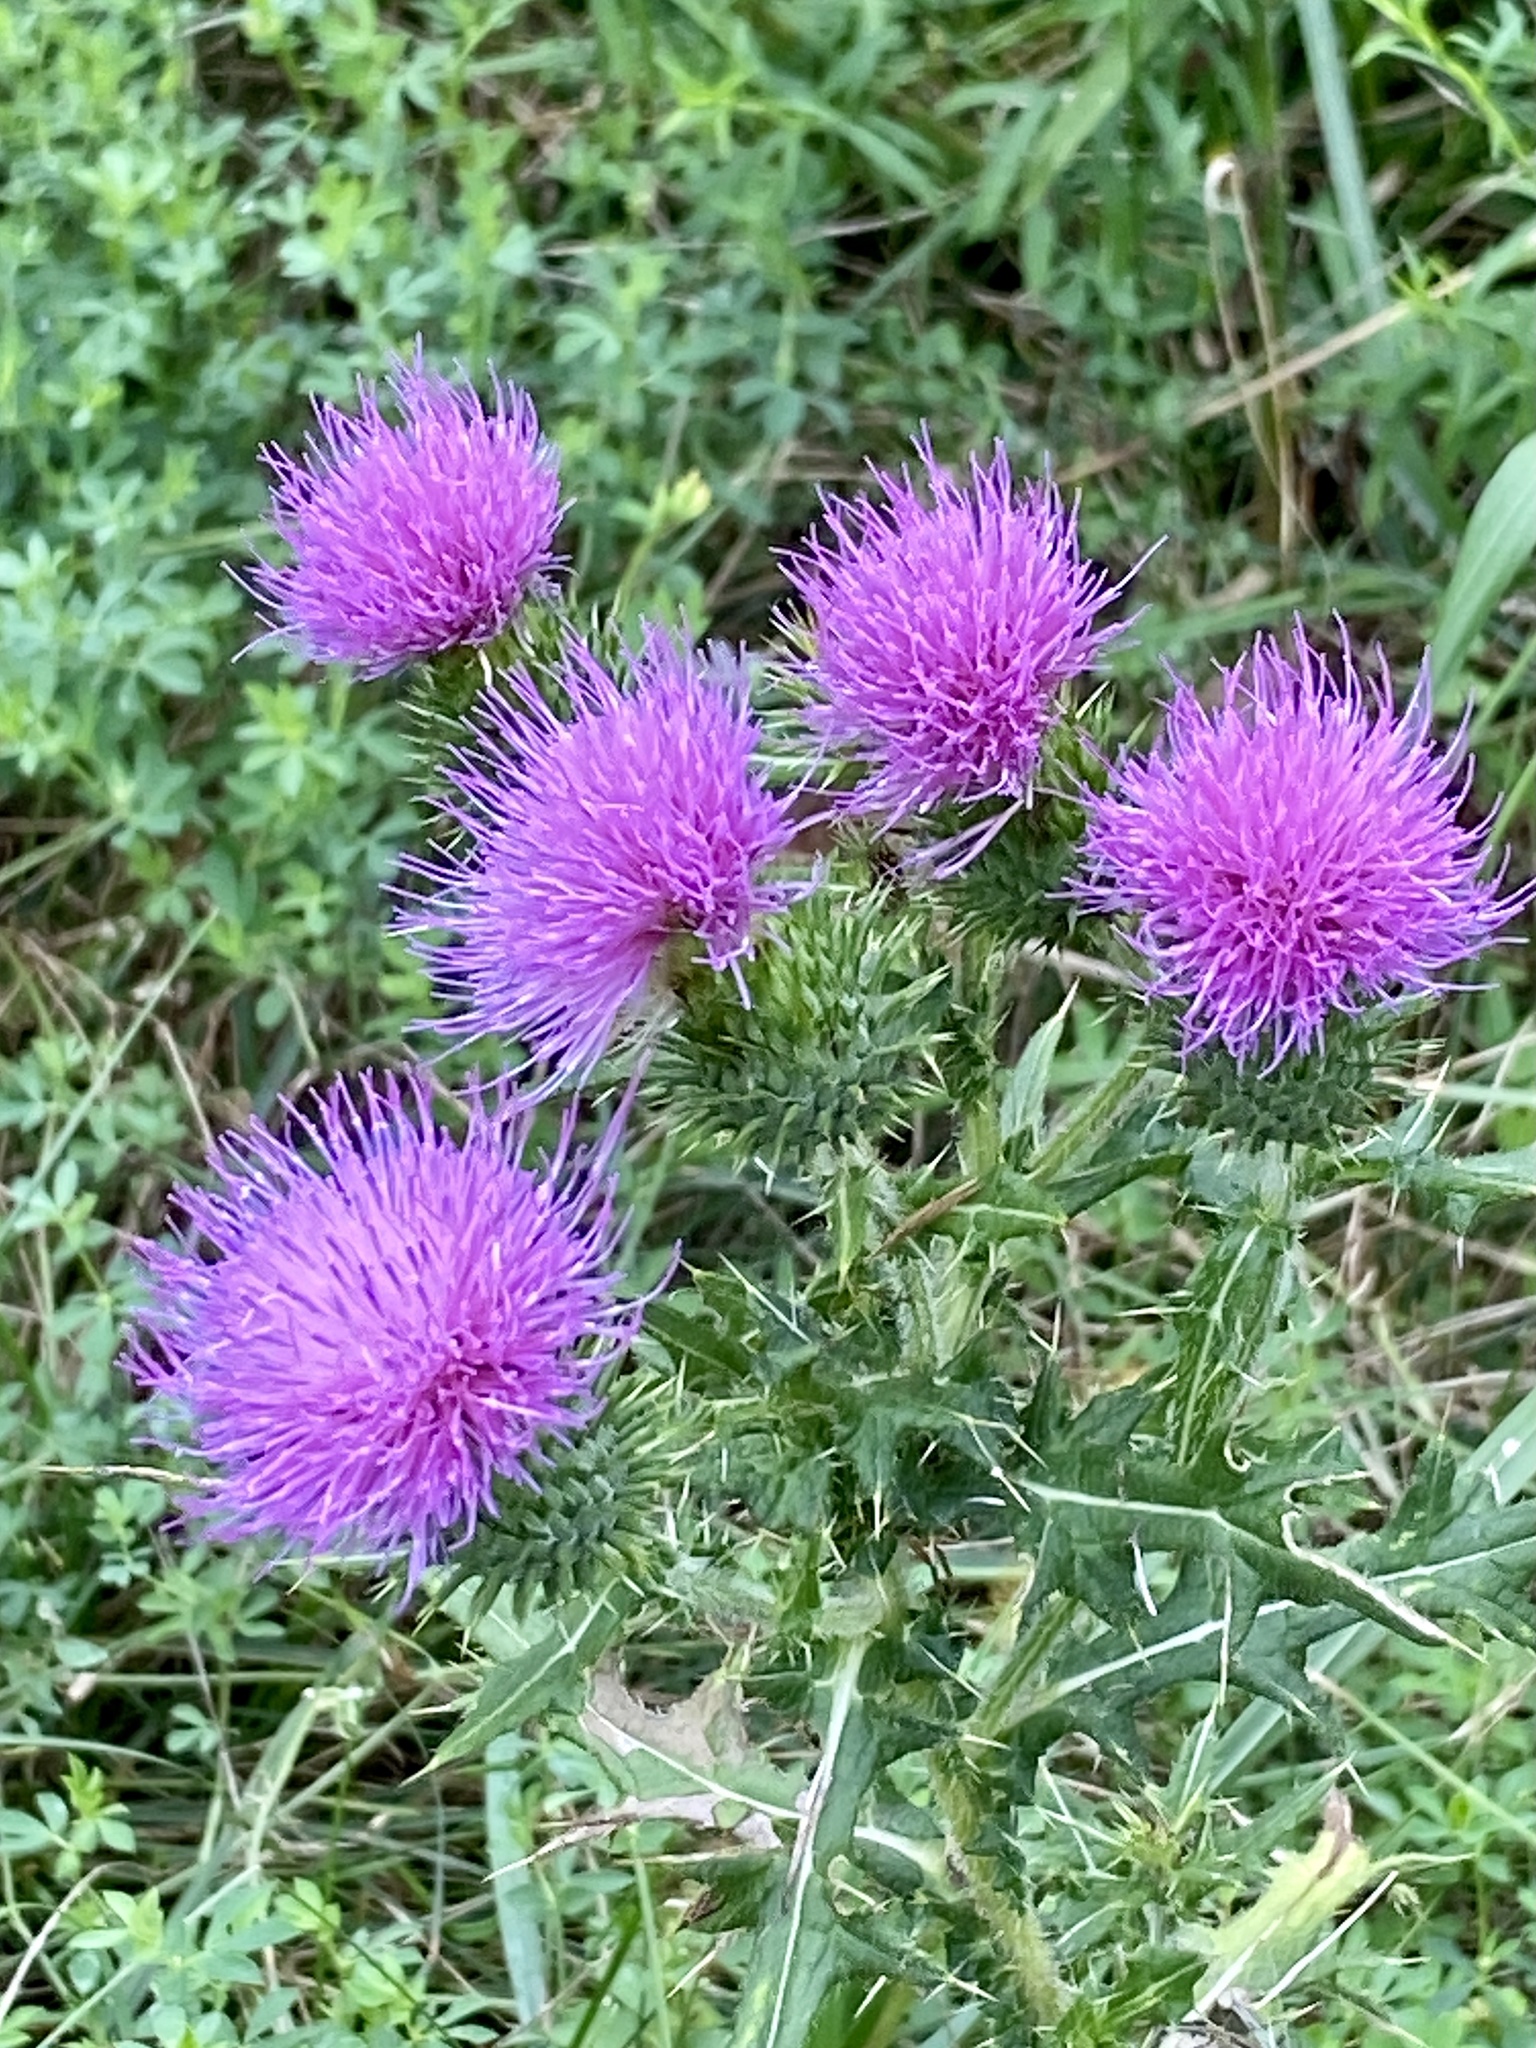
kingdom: Plantae
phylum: Tracheophyta
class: Magnoliopsida
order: Asterales
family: Asteraceae
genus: Cirsium
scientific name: Cirsium vulgare
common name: Bull thistle
